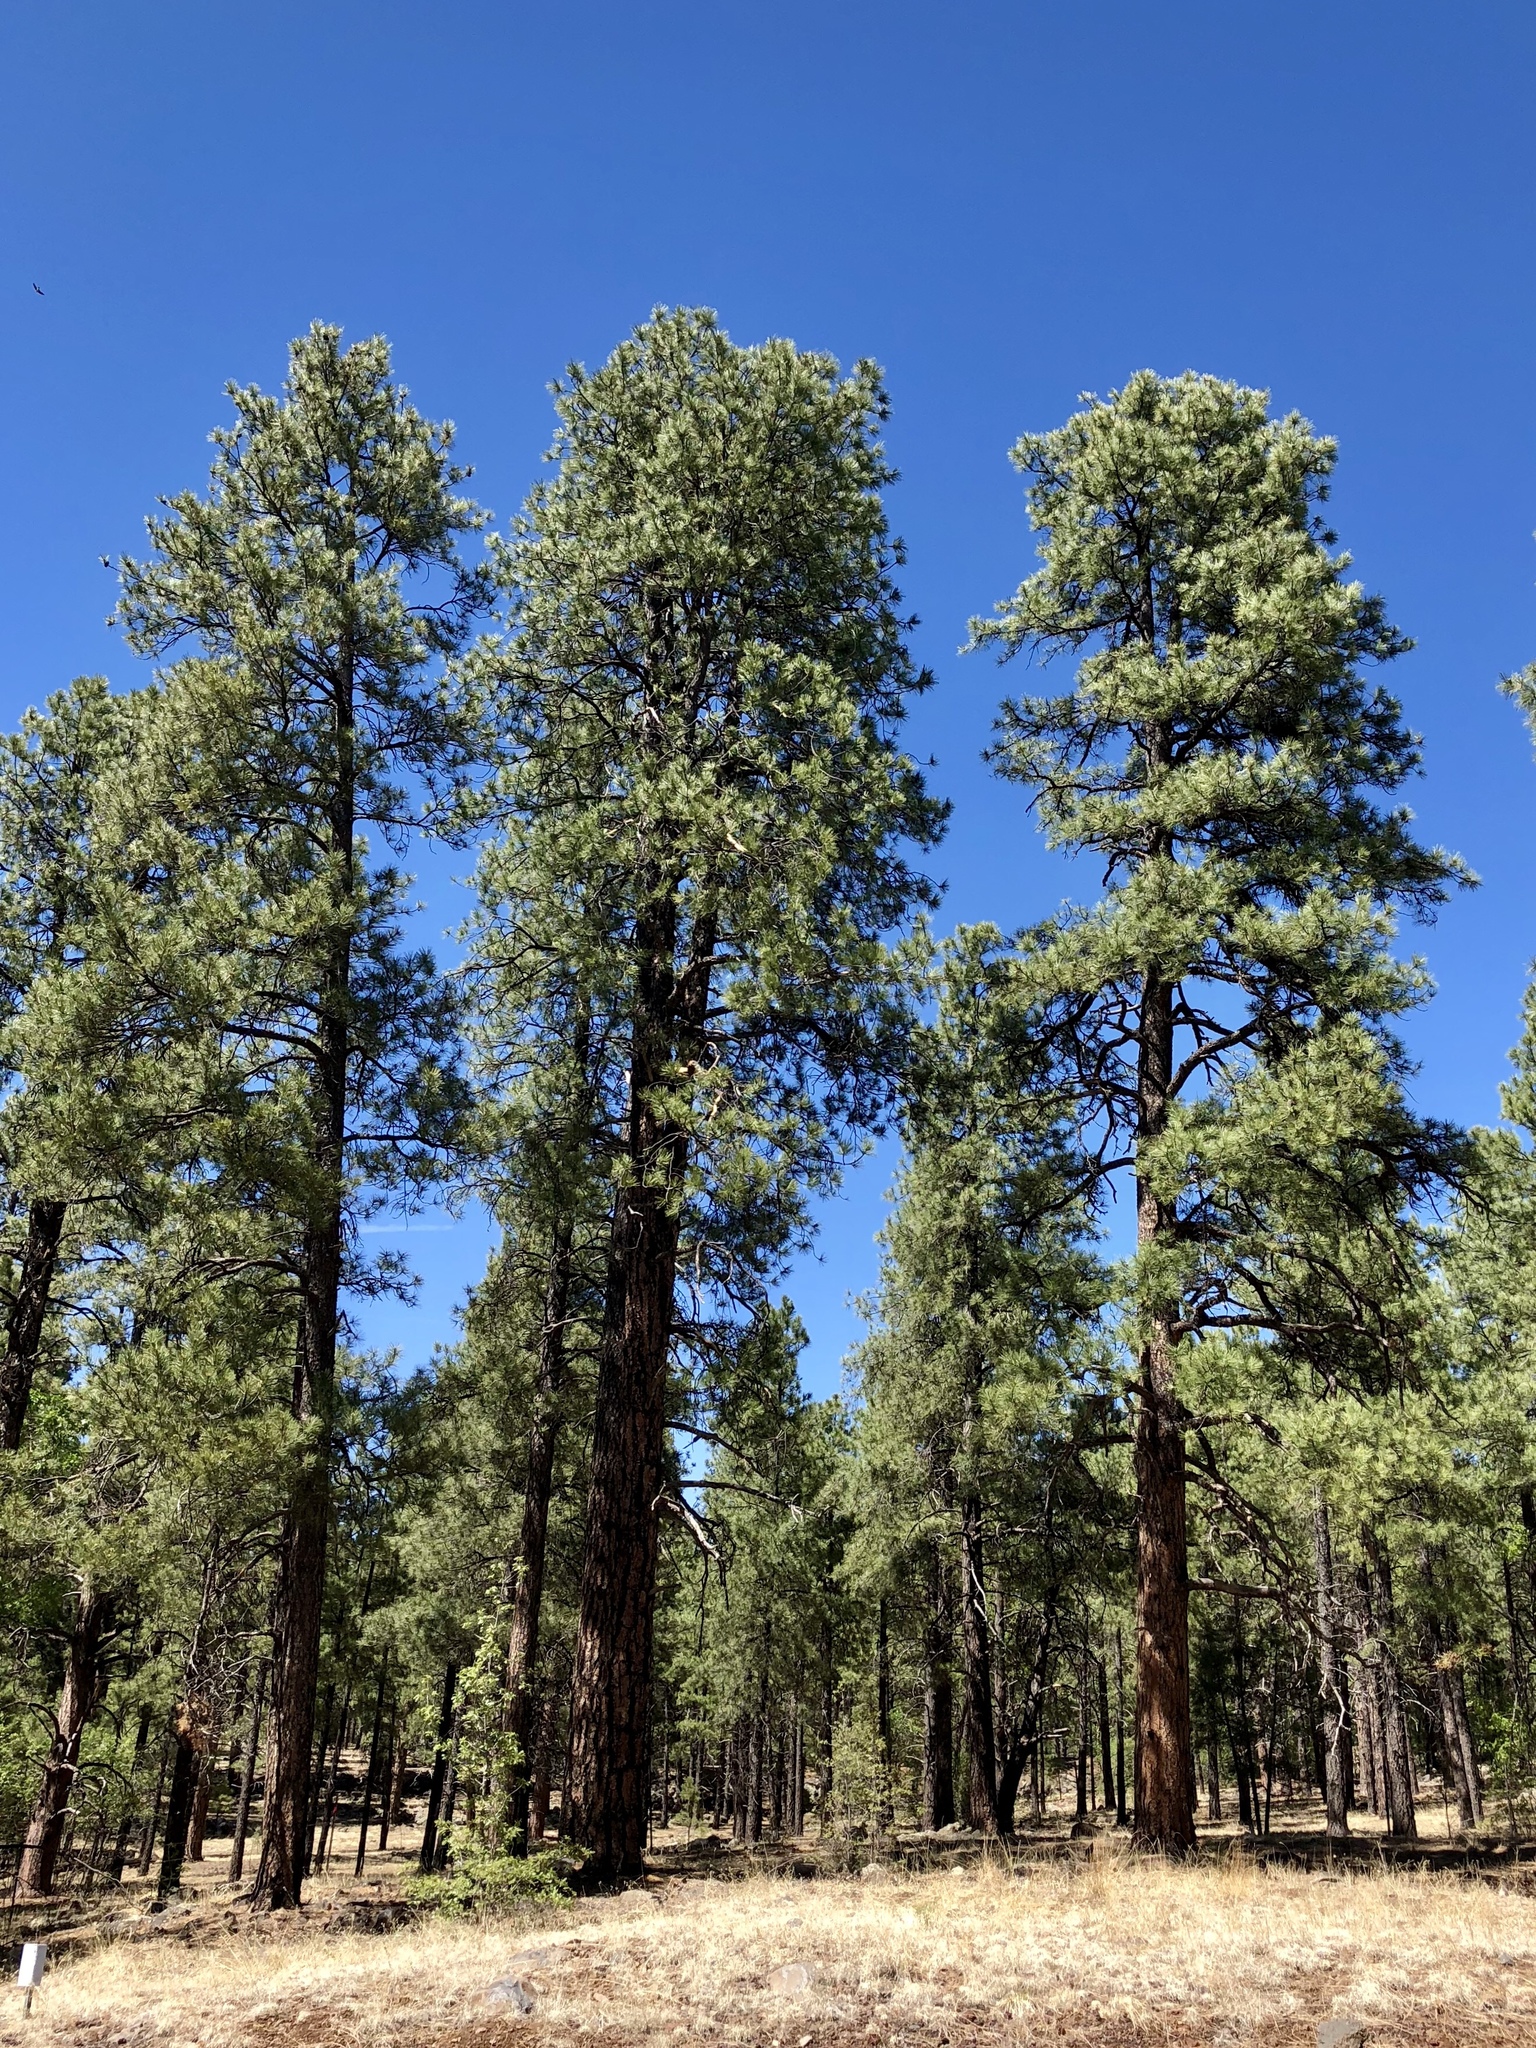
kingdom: Plantae
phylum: Tracheophyta
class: Pinopsida
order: Pinales
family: Pinaceae
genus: Pinus
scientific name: Pinus ponderosa
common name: Western yellow-pine
